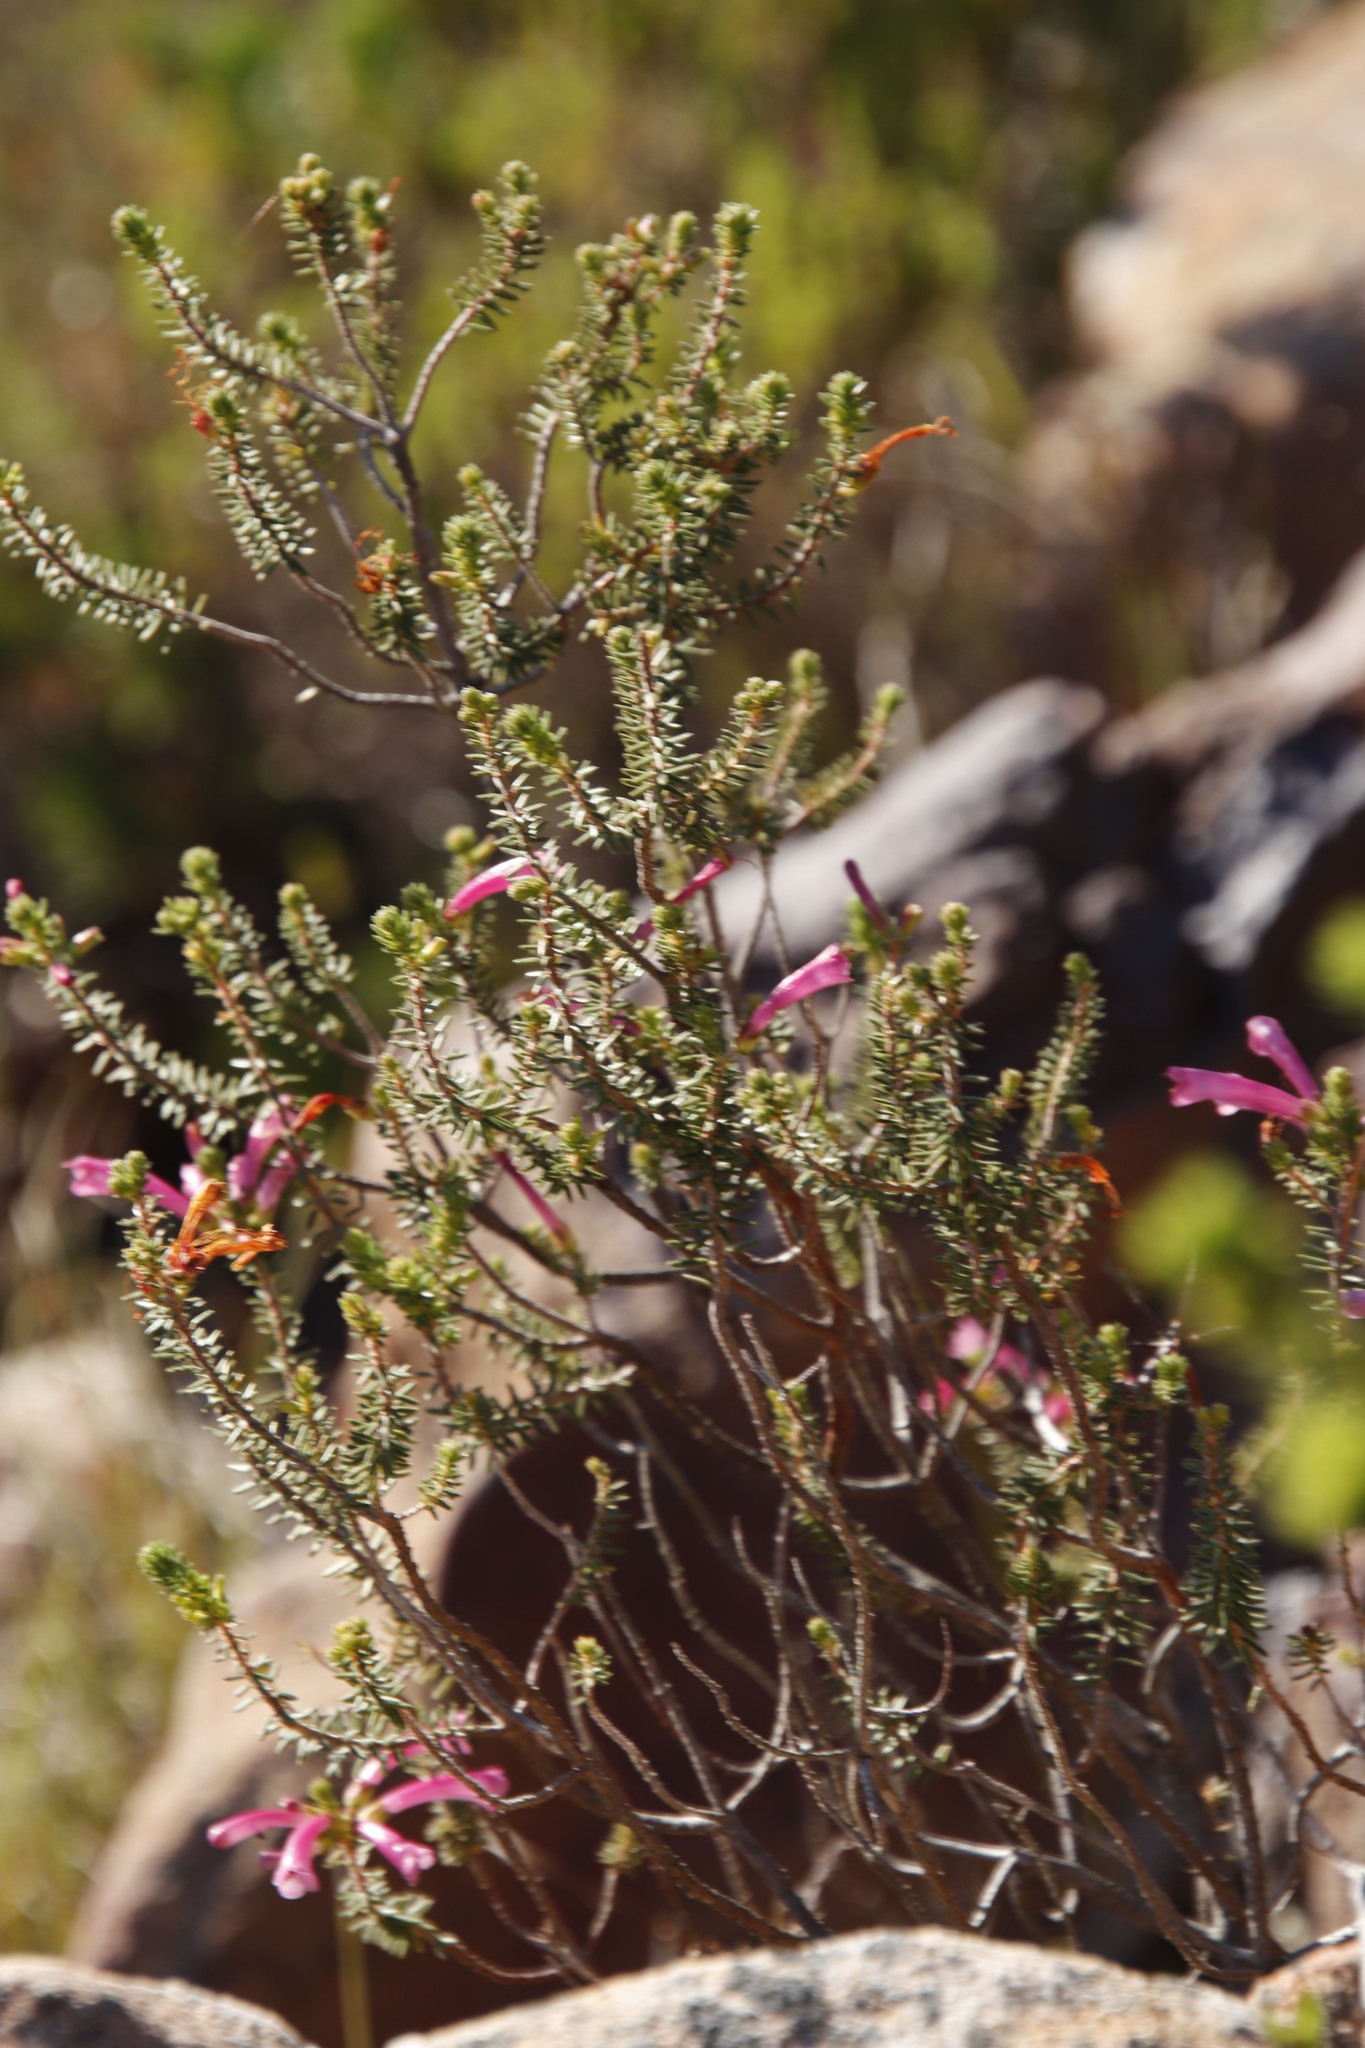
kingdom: Plantae
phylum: Tracheophyta
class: Magnoliopsida
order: Ericales
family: Ericaceae
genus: Erica
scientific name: Erica abietina
